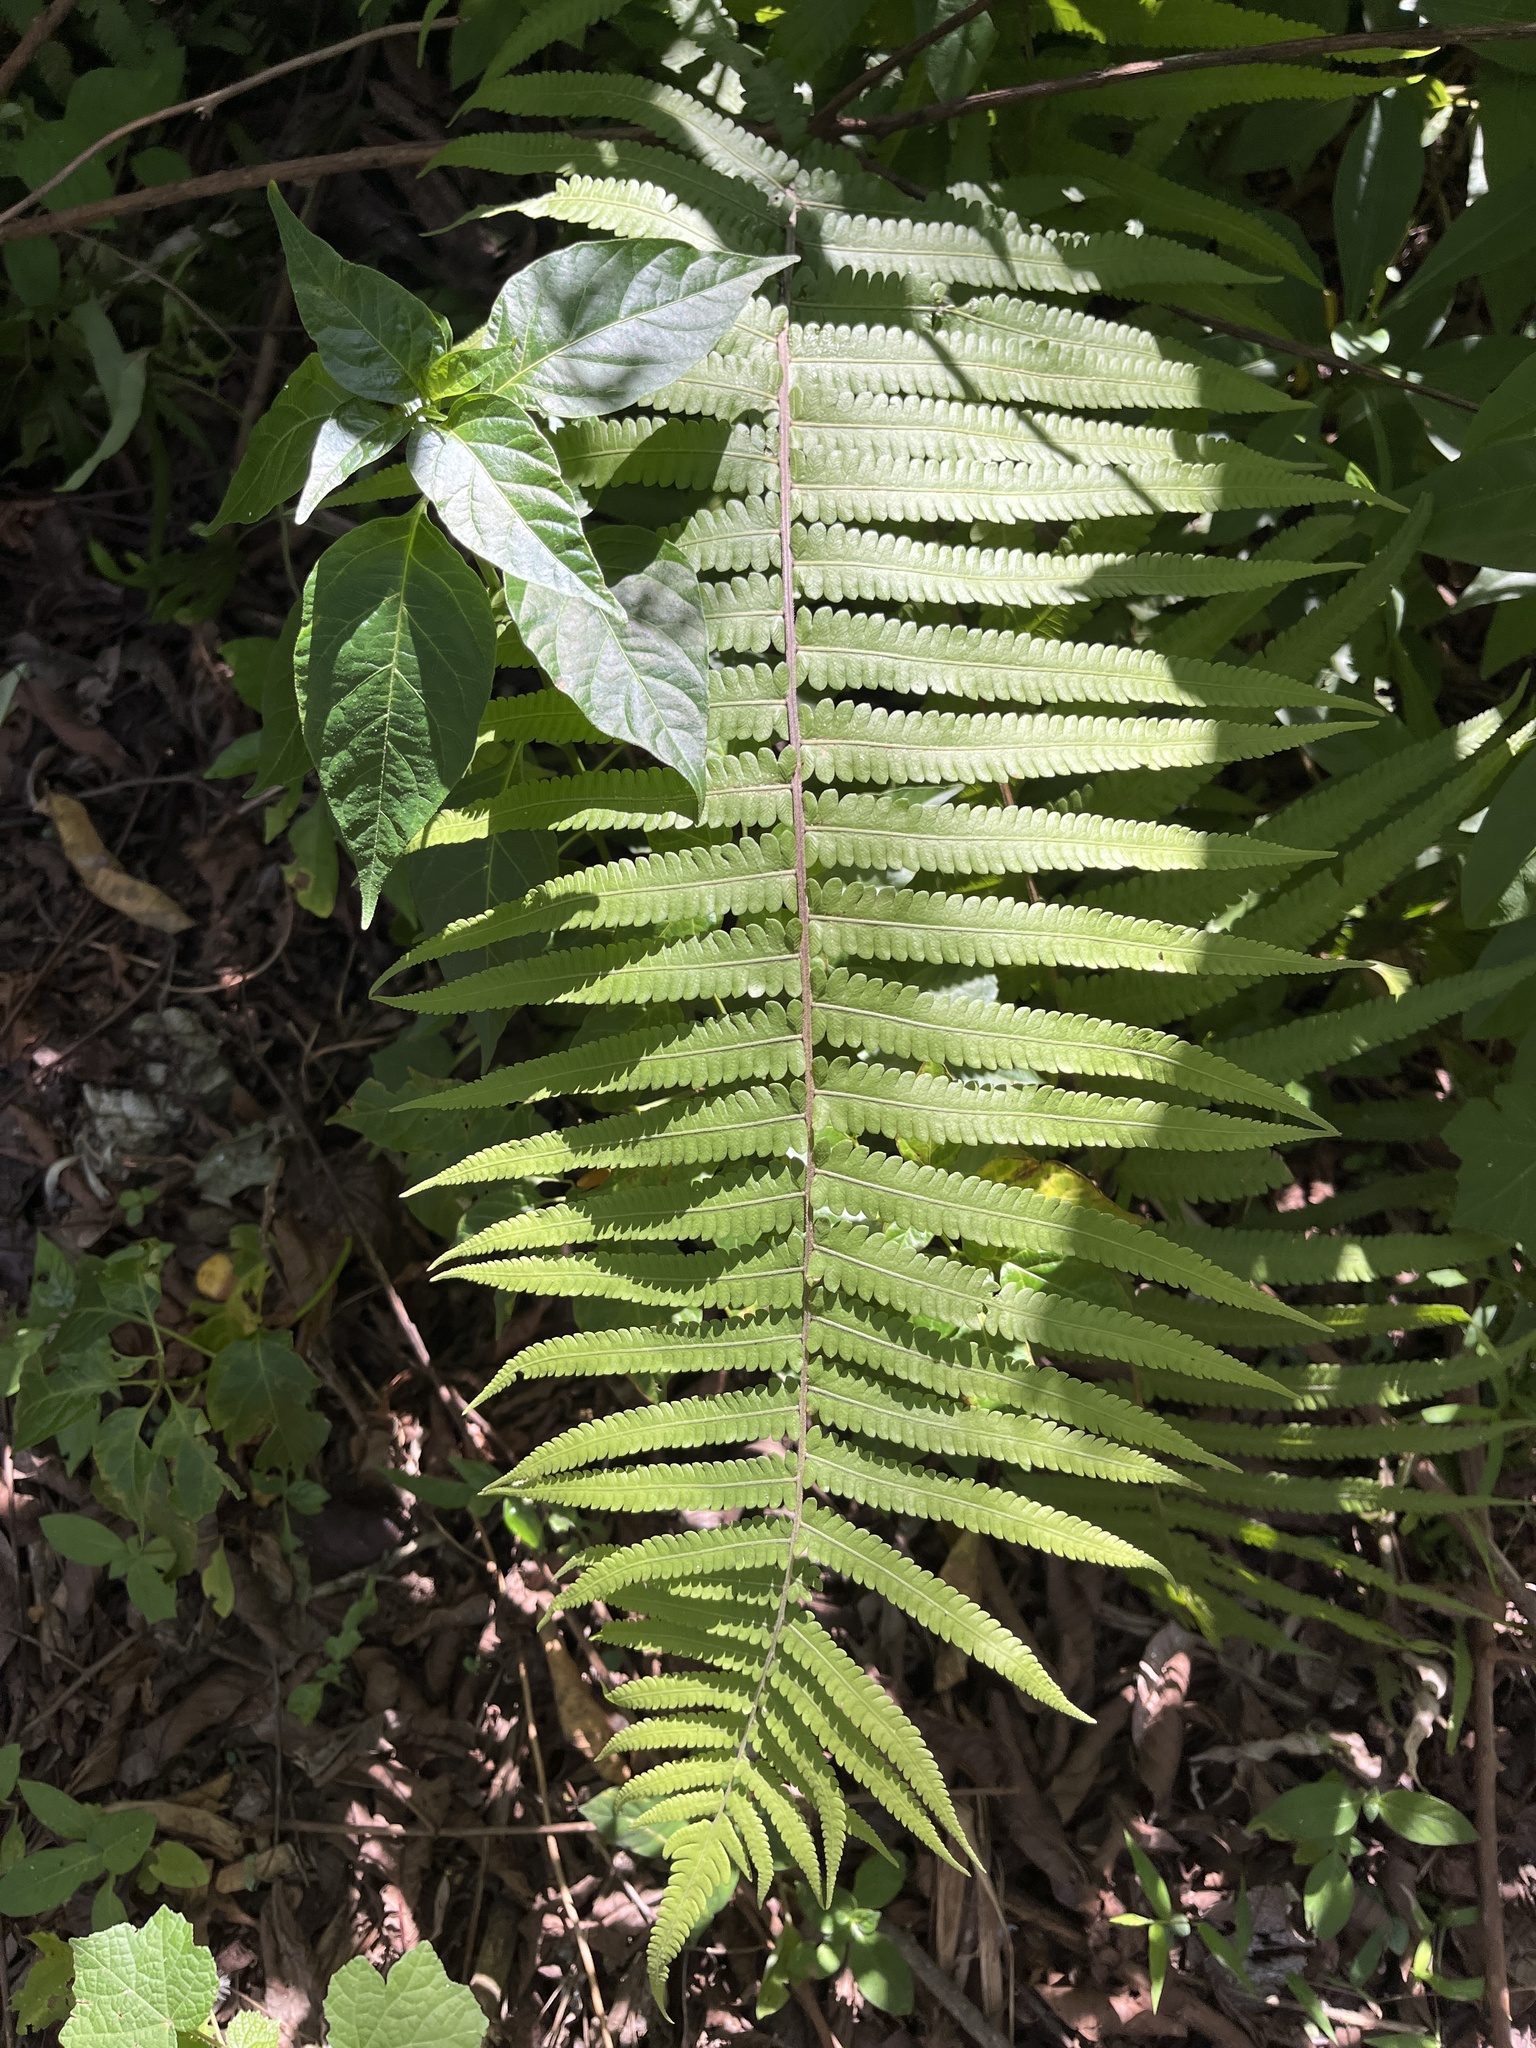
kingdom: Plantae
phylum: Tracheophyta
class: Polypodiopsida
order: Polypodiales
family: Thelypteridaceae
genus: Christella
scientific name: Christella parasitica
